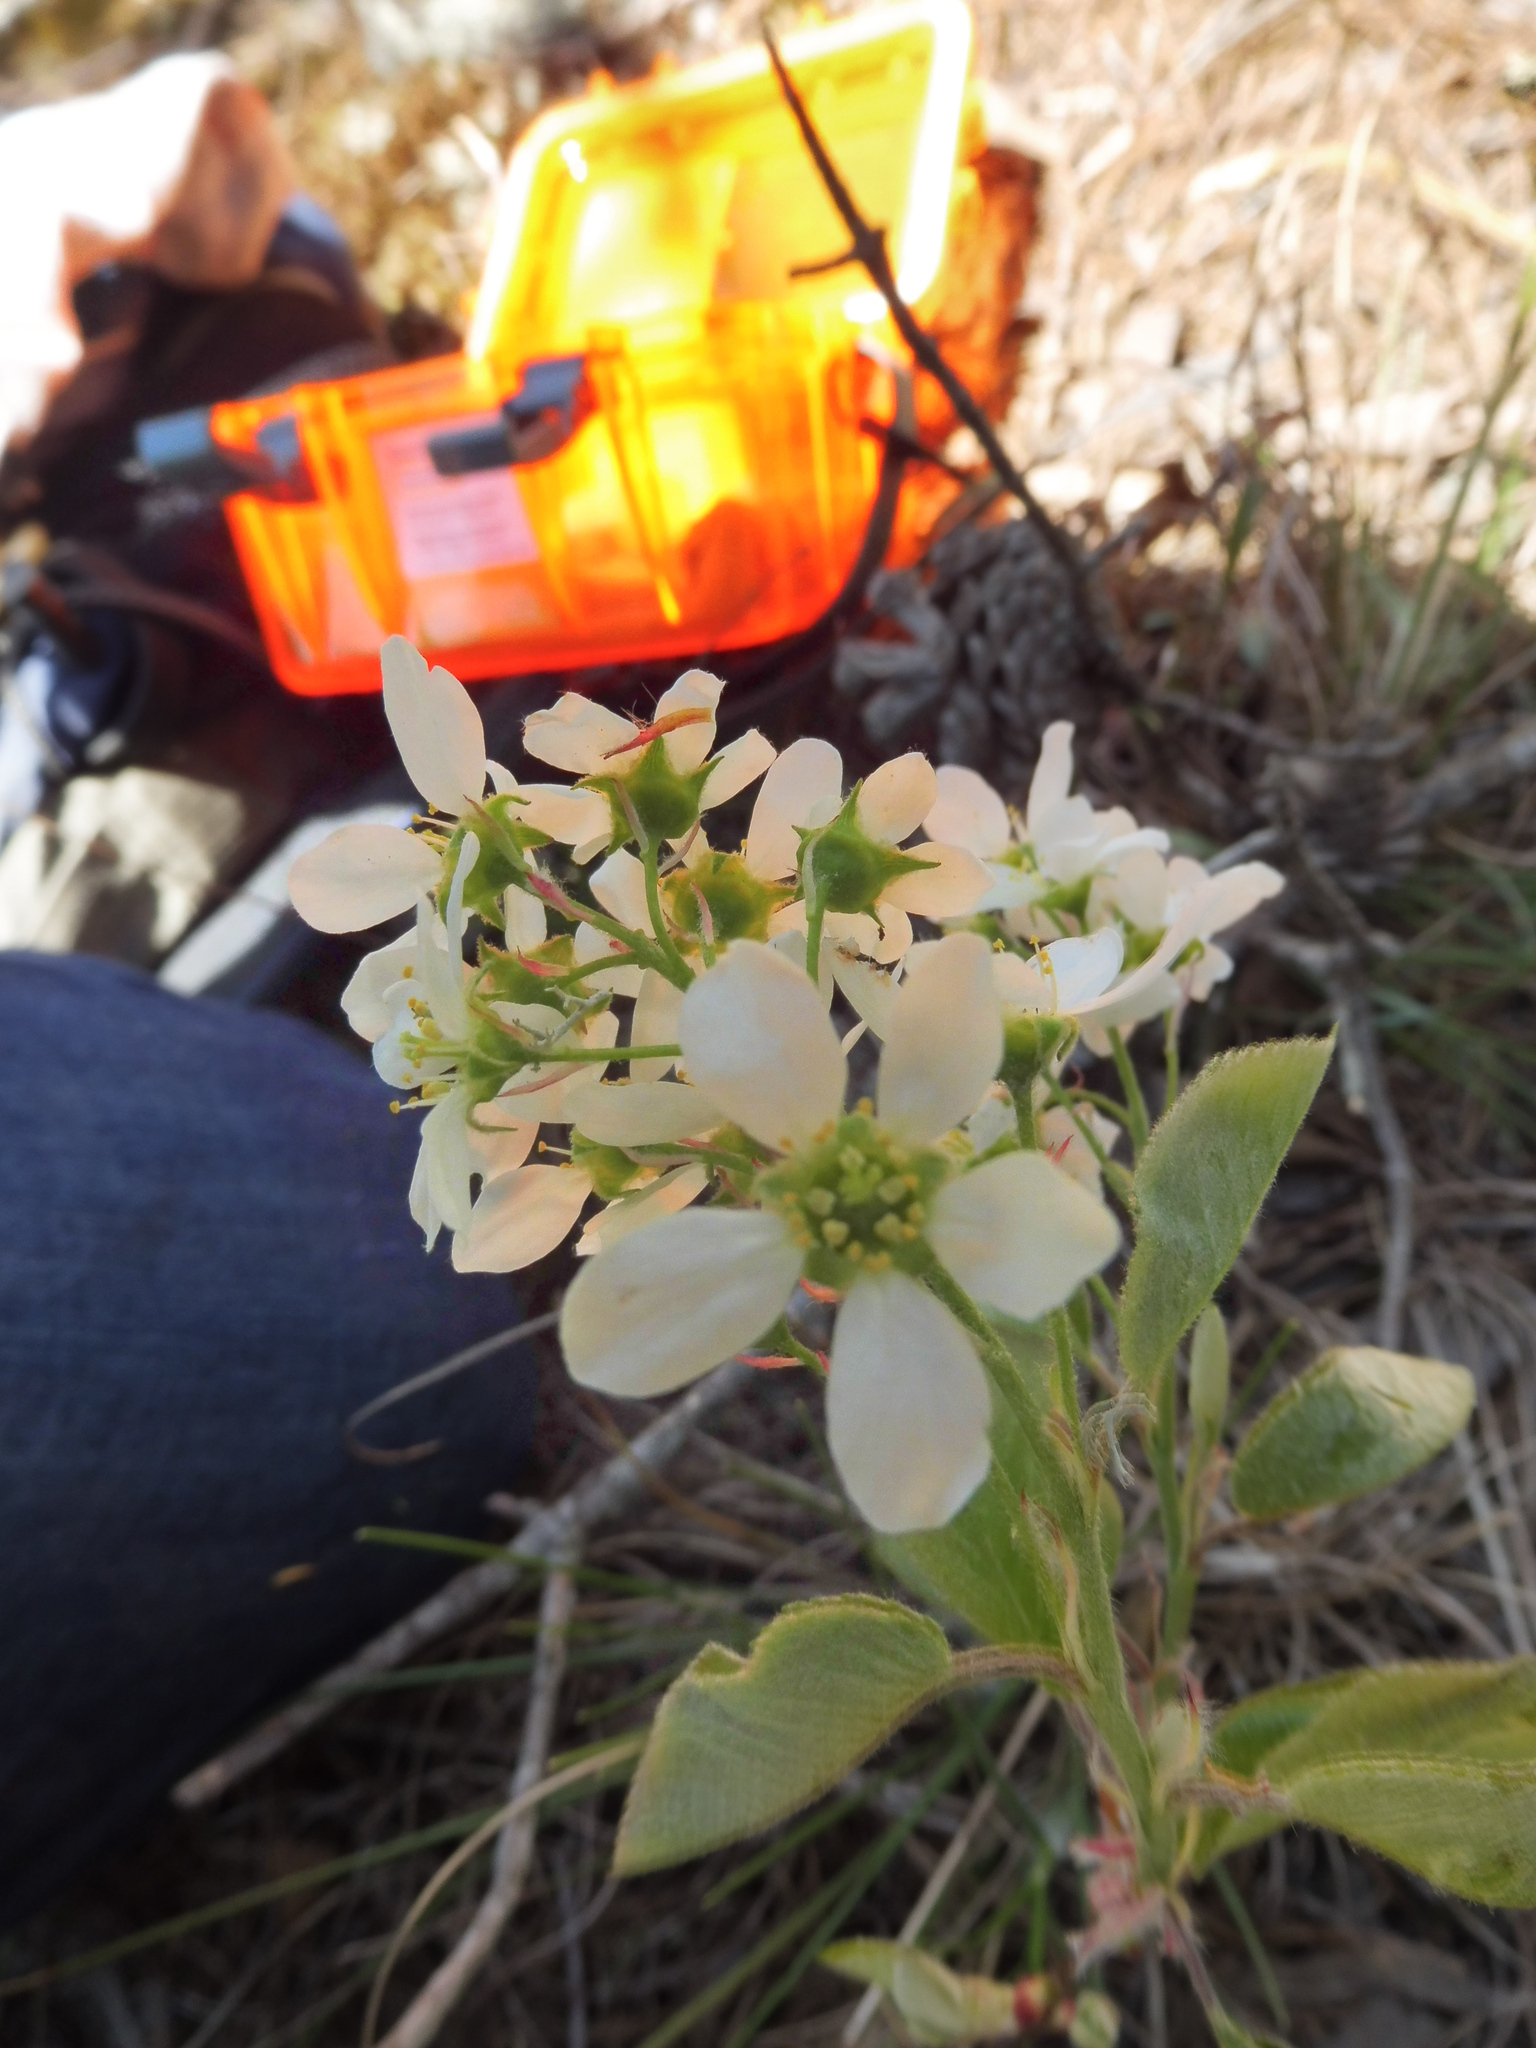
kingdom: Plantae
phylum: Tracheophyta
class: Magnoliopsida
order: Rosales
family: Rosaceae
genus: Amelanchier
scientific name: Amelanchier
